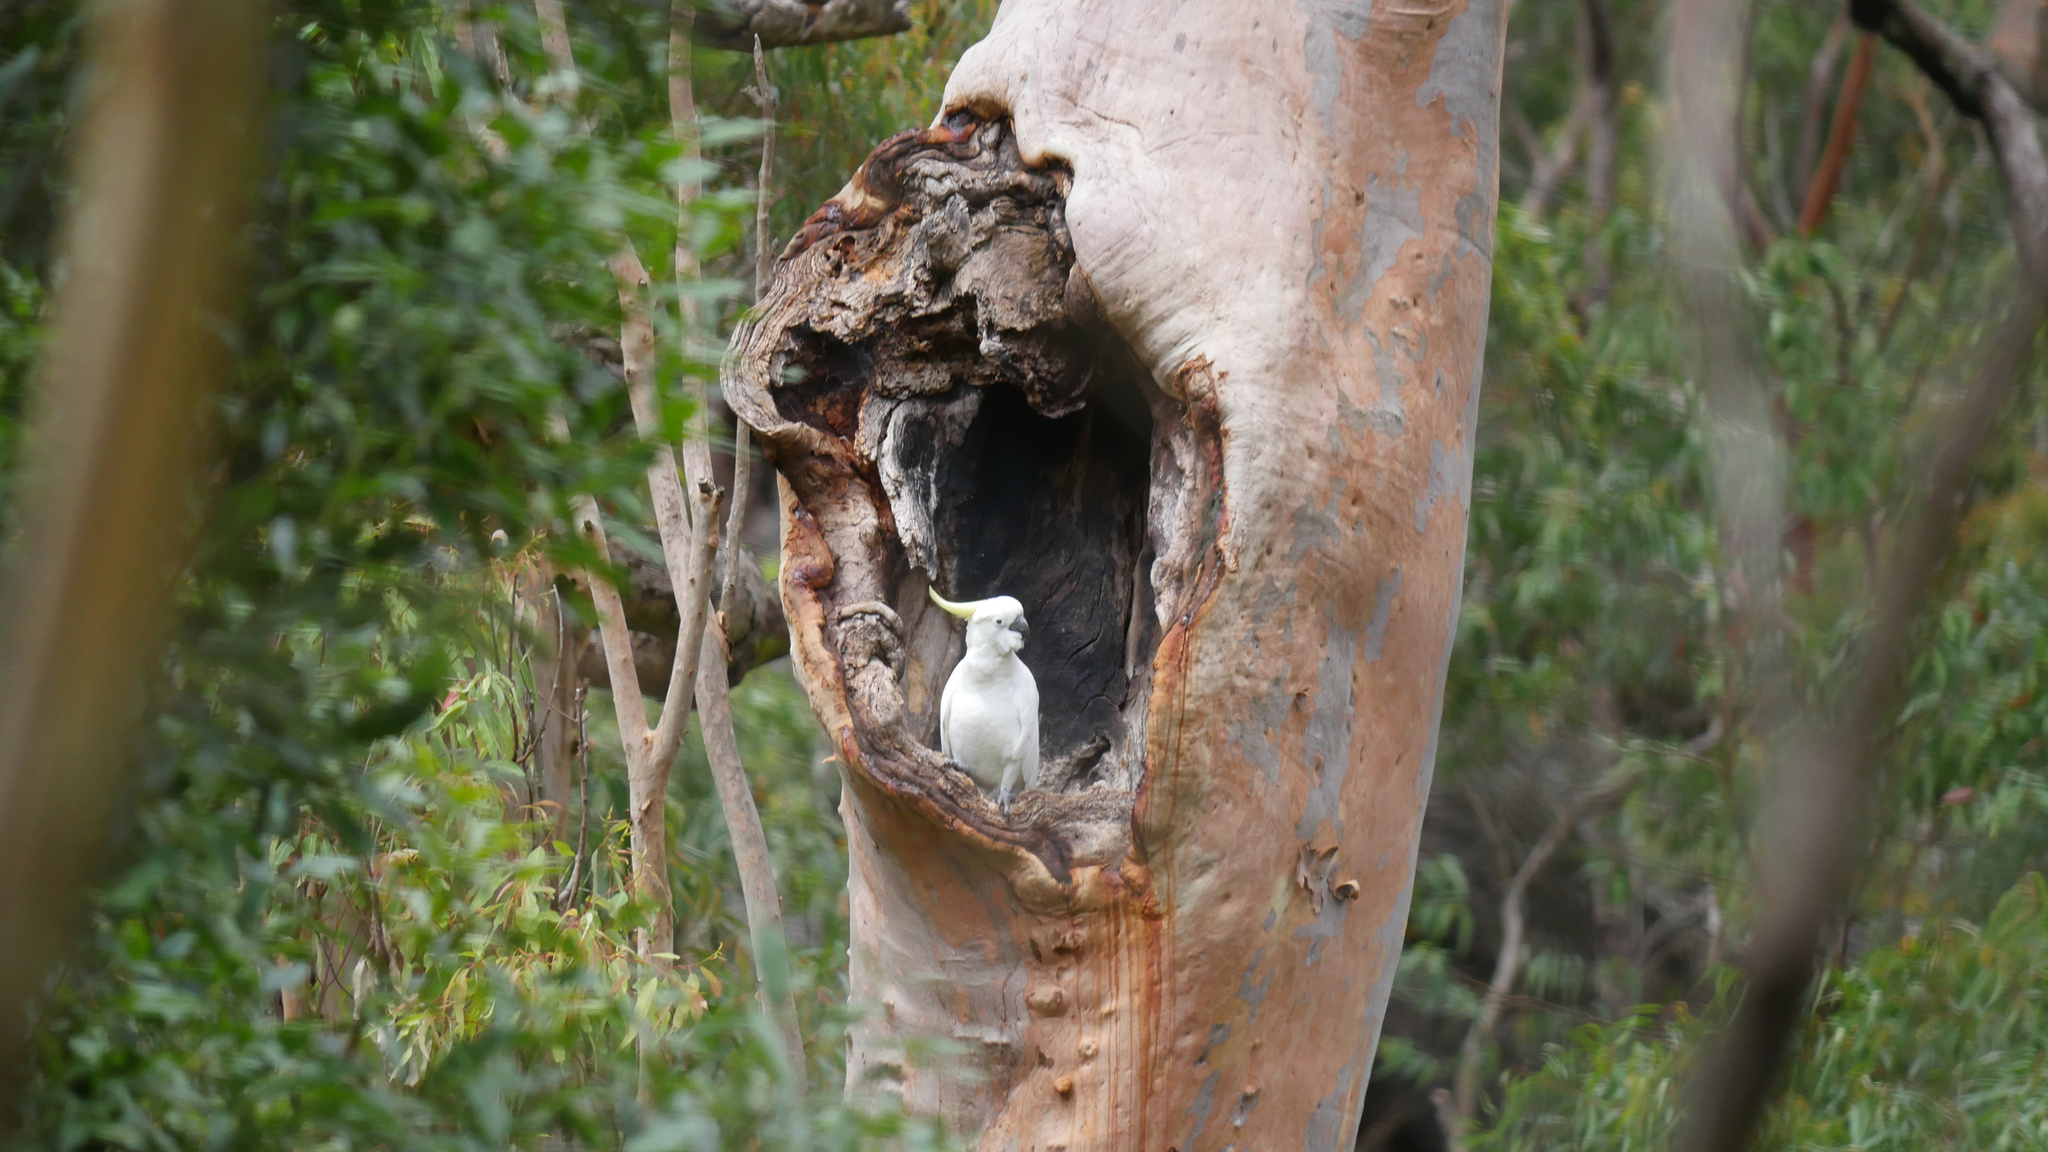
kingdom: Animalia
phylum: Chordata
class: Aves
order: Psittaciformes
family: Psittacidae
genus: Cacatua
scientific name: Cacatua galerita
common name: Sulphur-crested cockatoo
